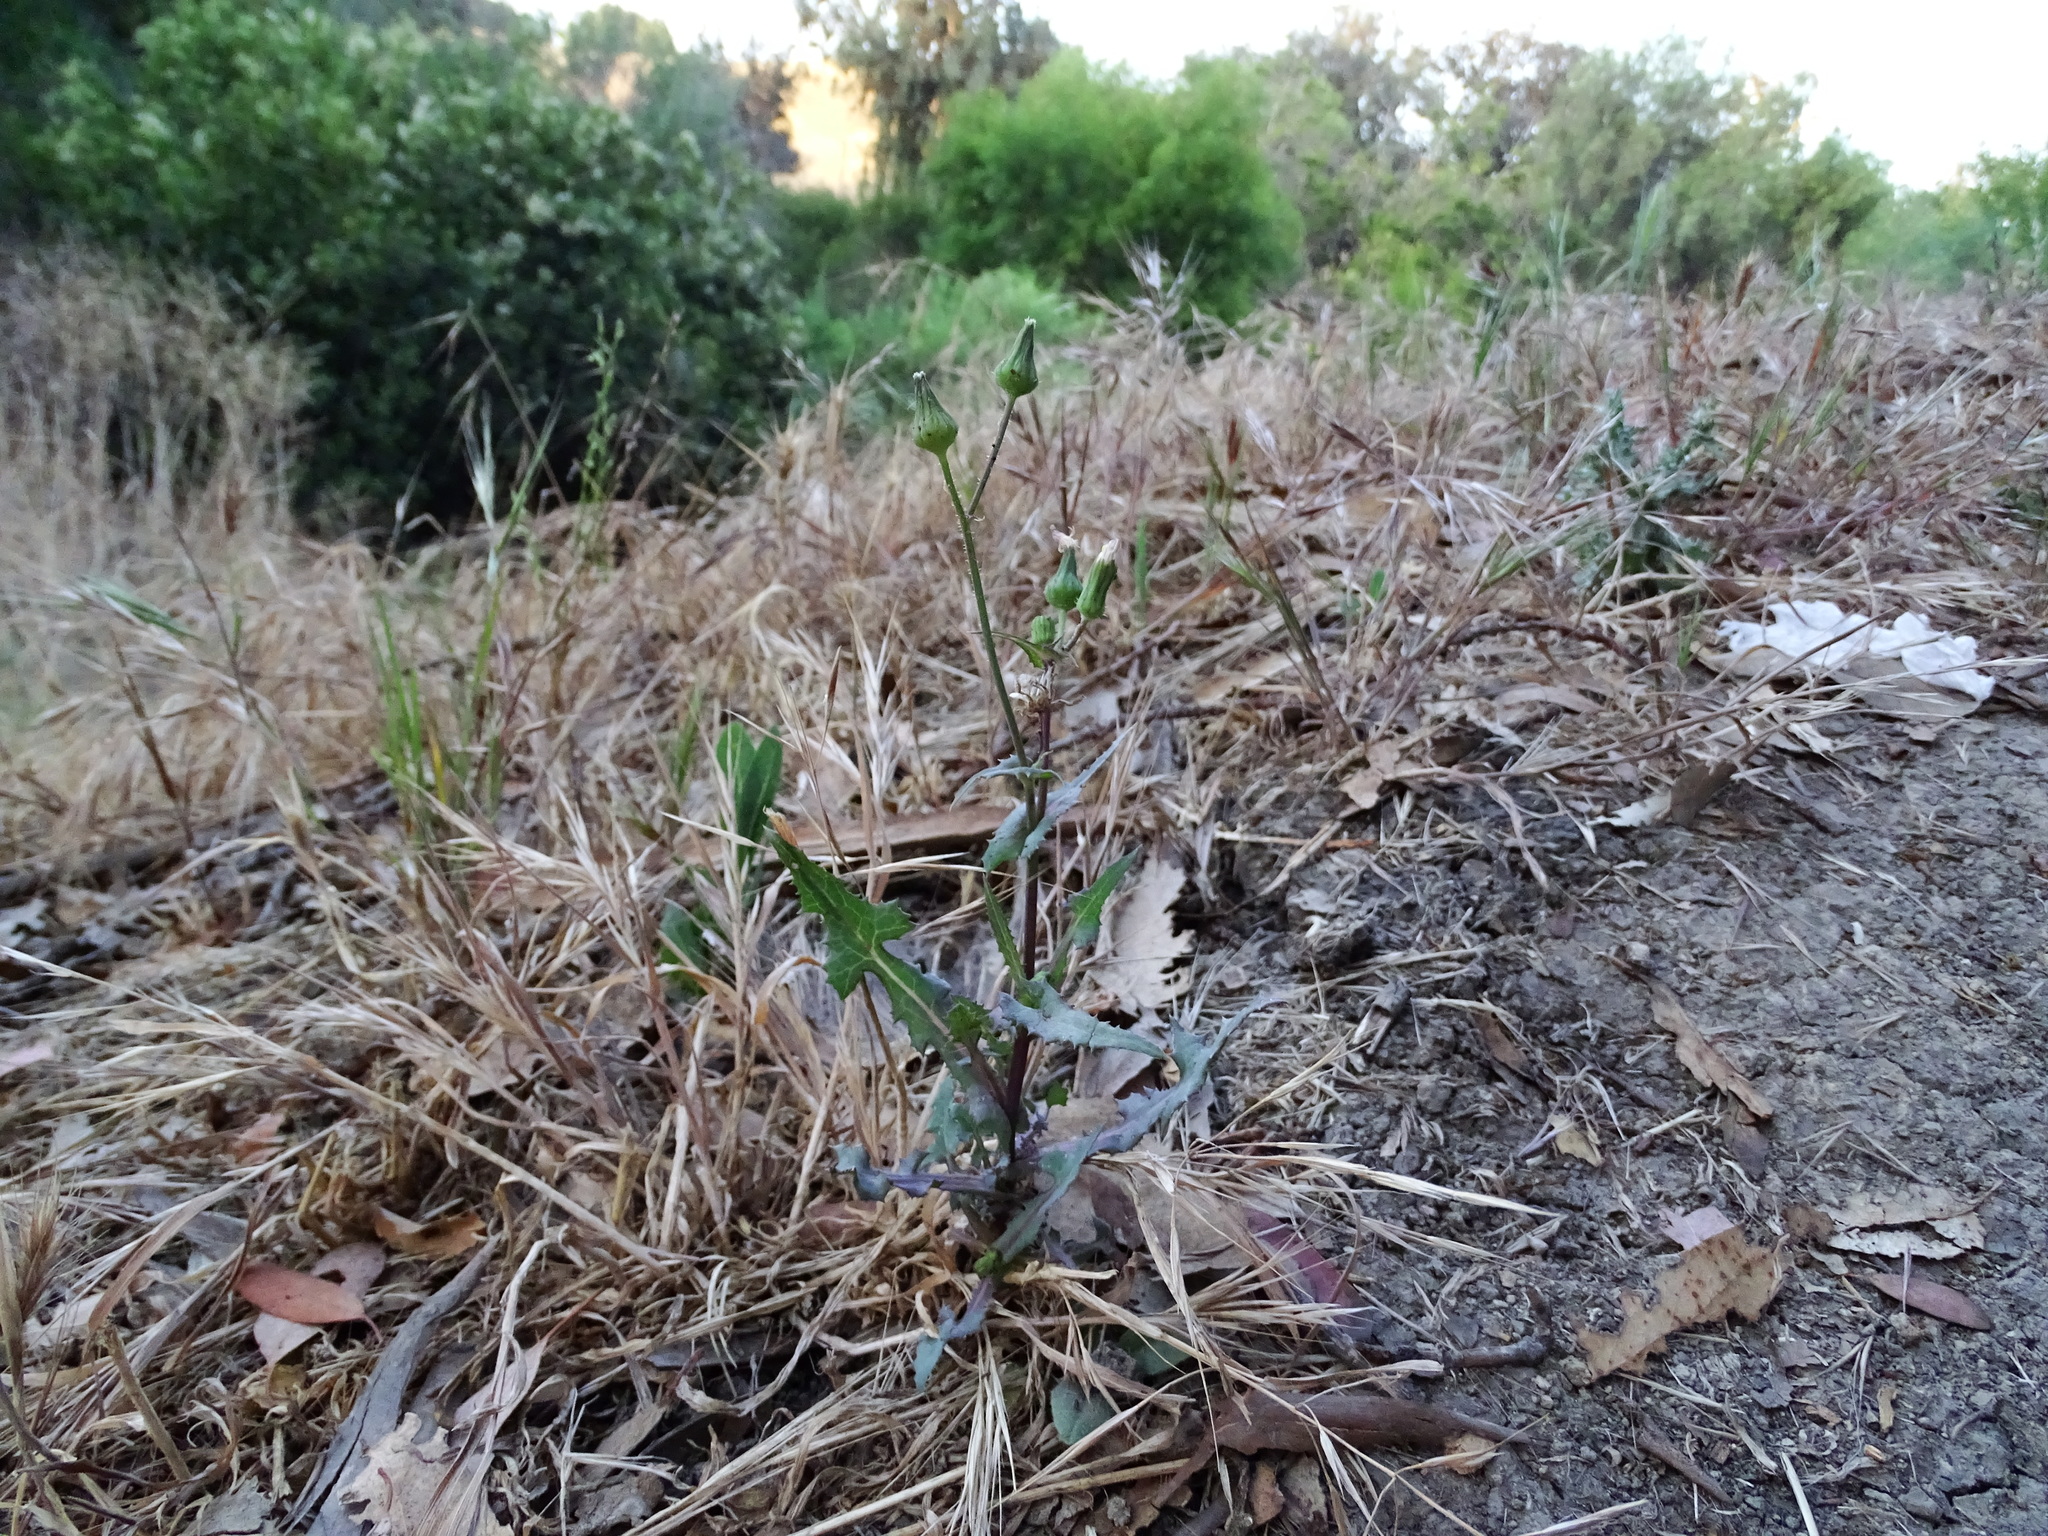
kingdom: Plantae
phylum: Tracheophyta
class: Magnoliopsida
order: Asterales
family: Asteraceae
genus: Sonchus
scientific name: Sonchus oleraceus
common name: Common sowthistle
